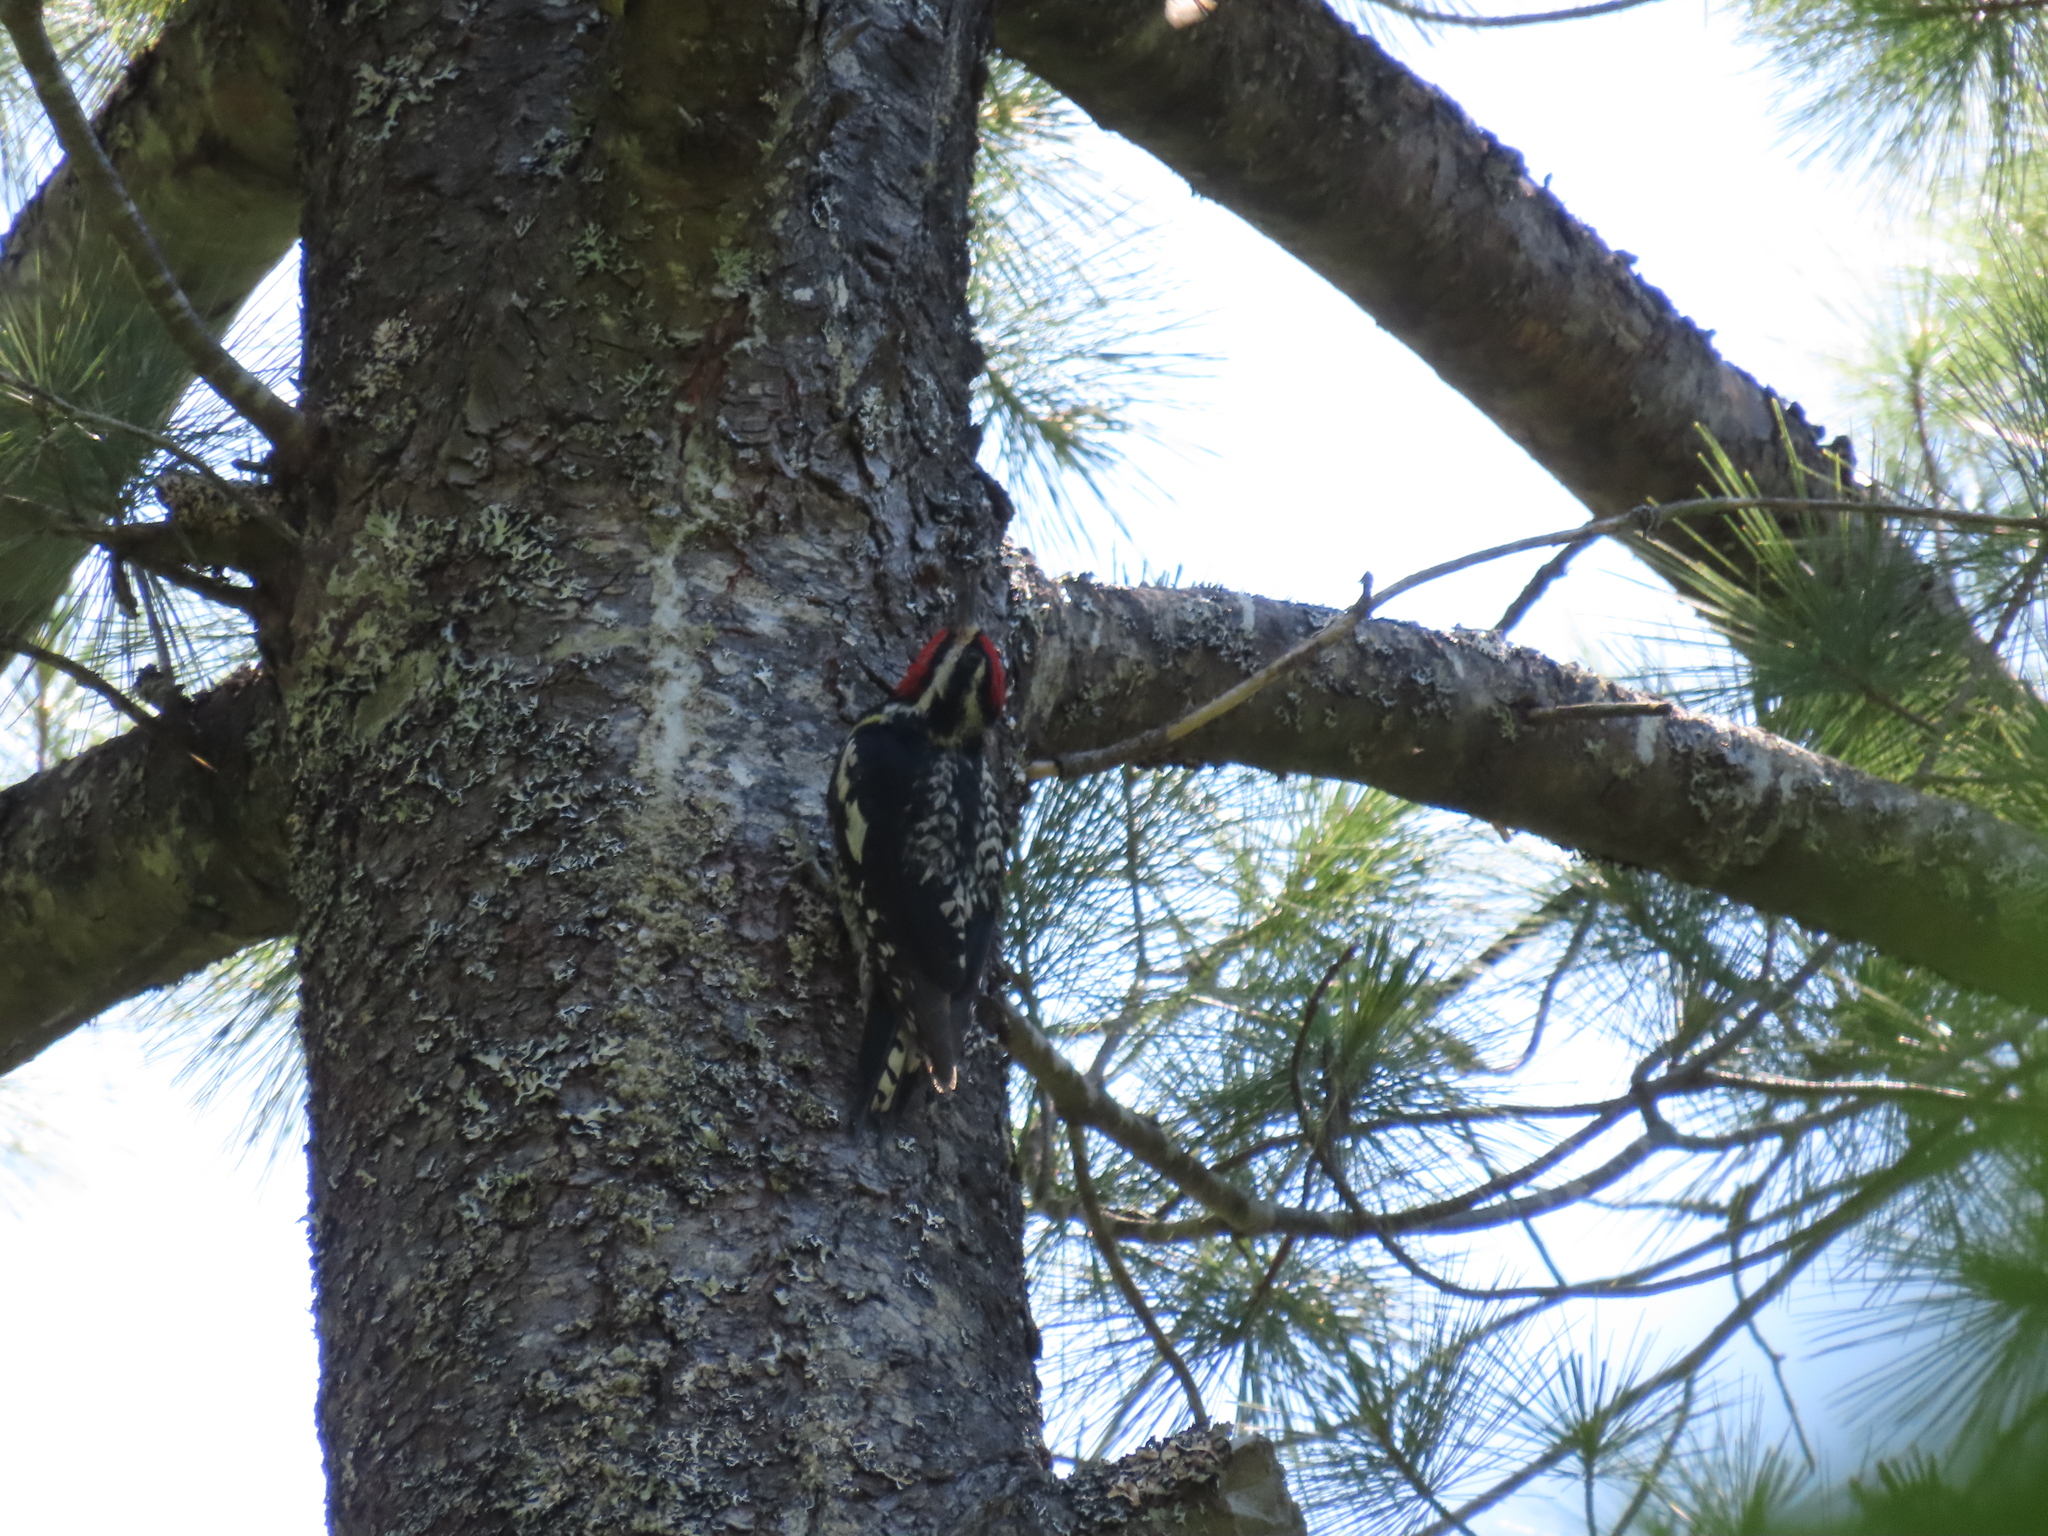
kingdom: Animalia
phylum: Chordata
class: Aves
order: Piciformes
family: Picidae
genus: Sphyrapicus
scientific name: Sphyrapicus varius
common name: Yellow-bellied sapsucker
